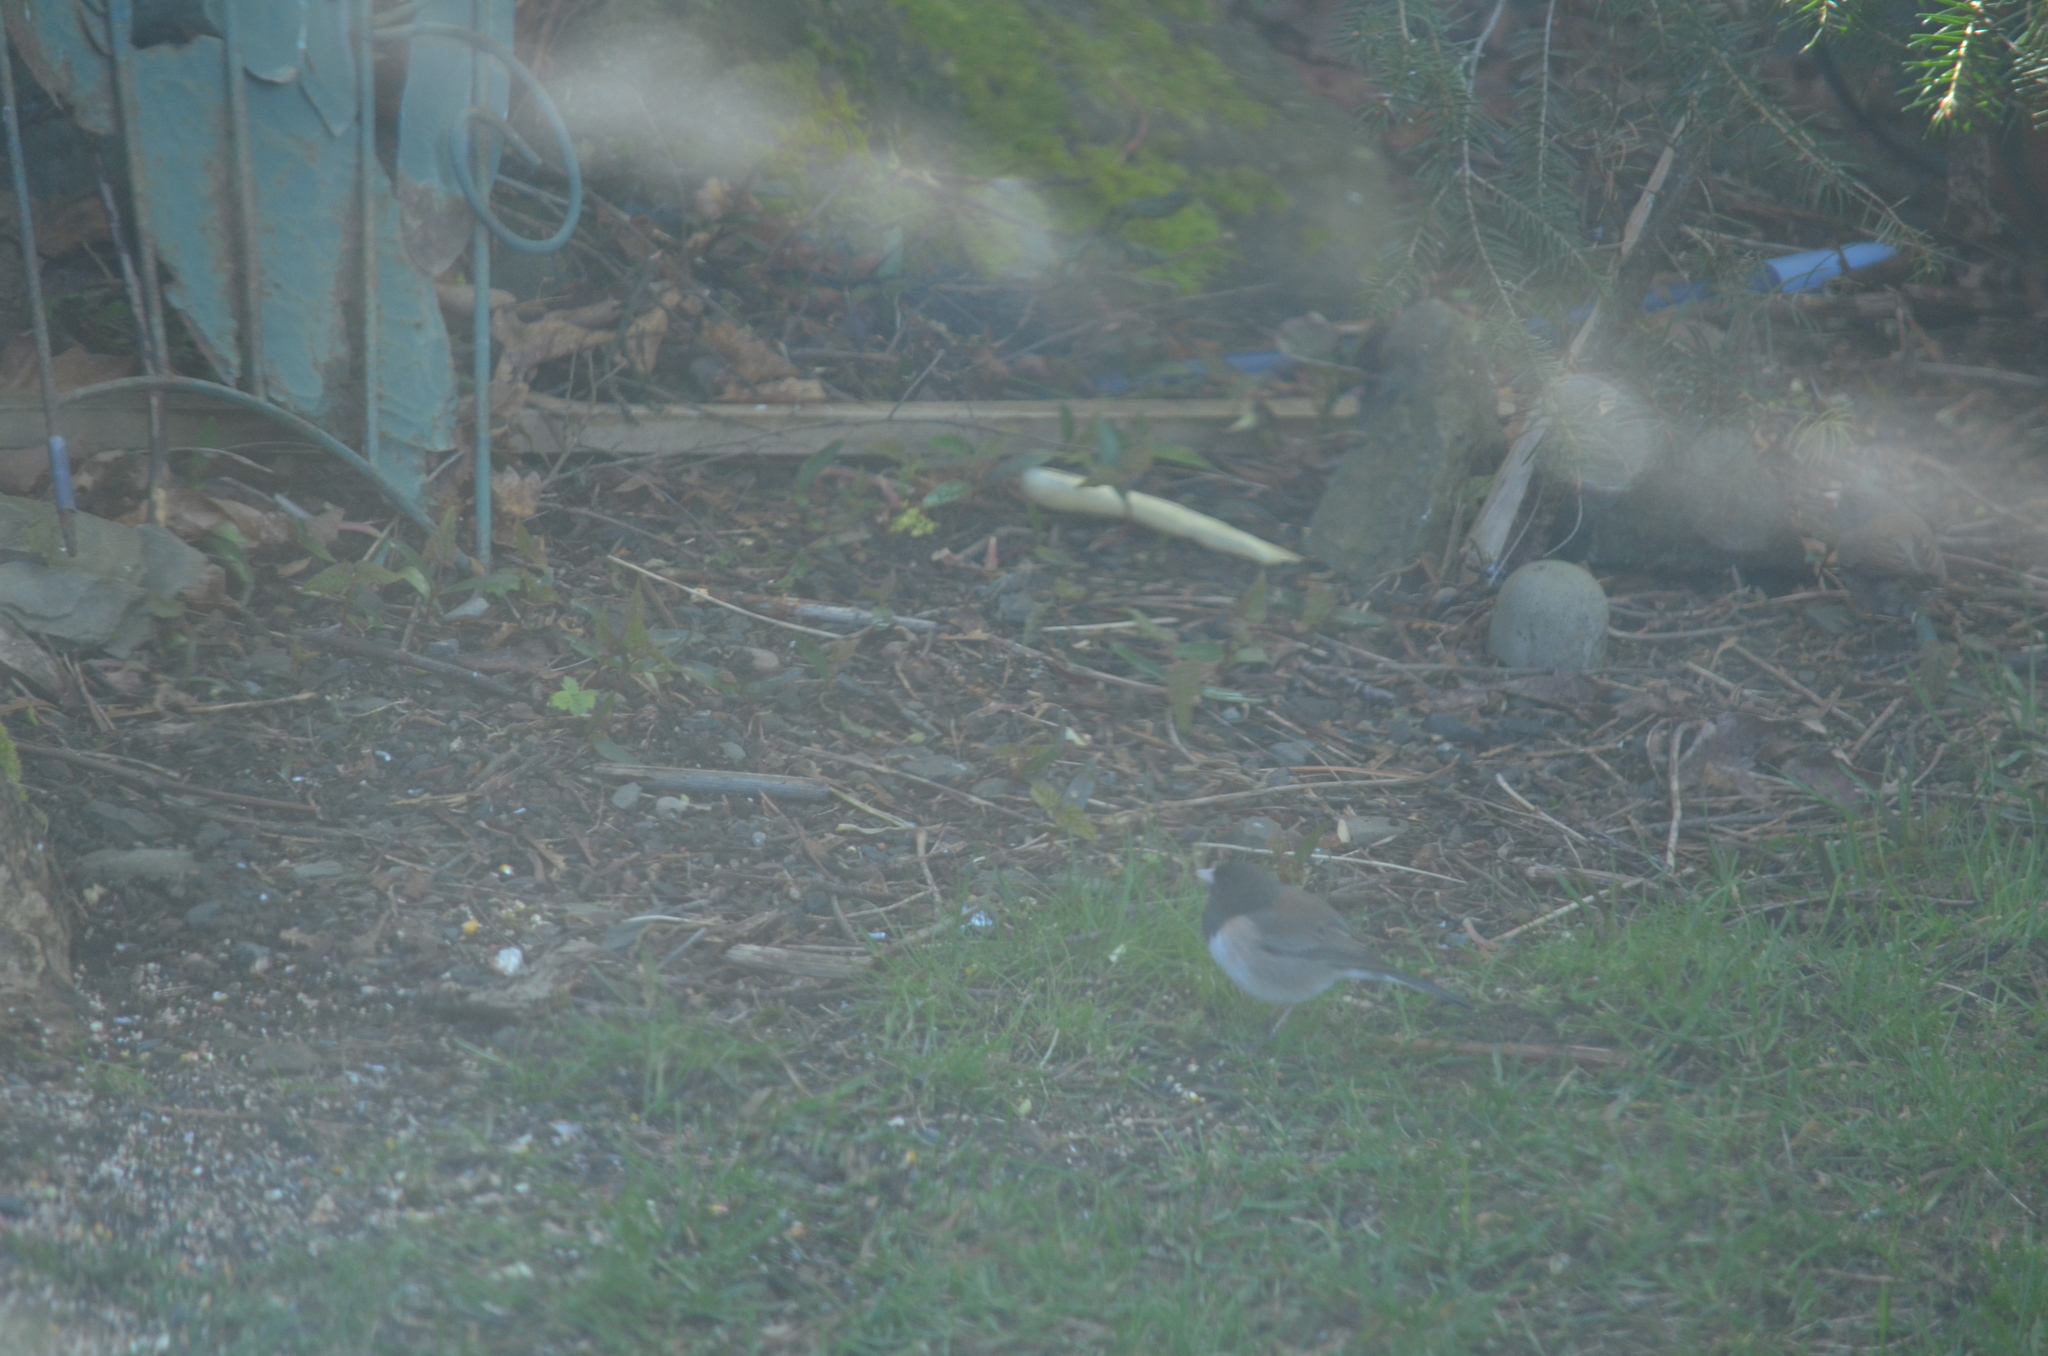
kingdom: Animalia
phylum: Chordata
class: Aves
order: Passeriformes
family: Passerellidae
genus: Junco
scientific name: Junco hyemalis
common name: Dark-eyed junco
